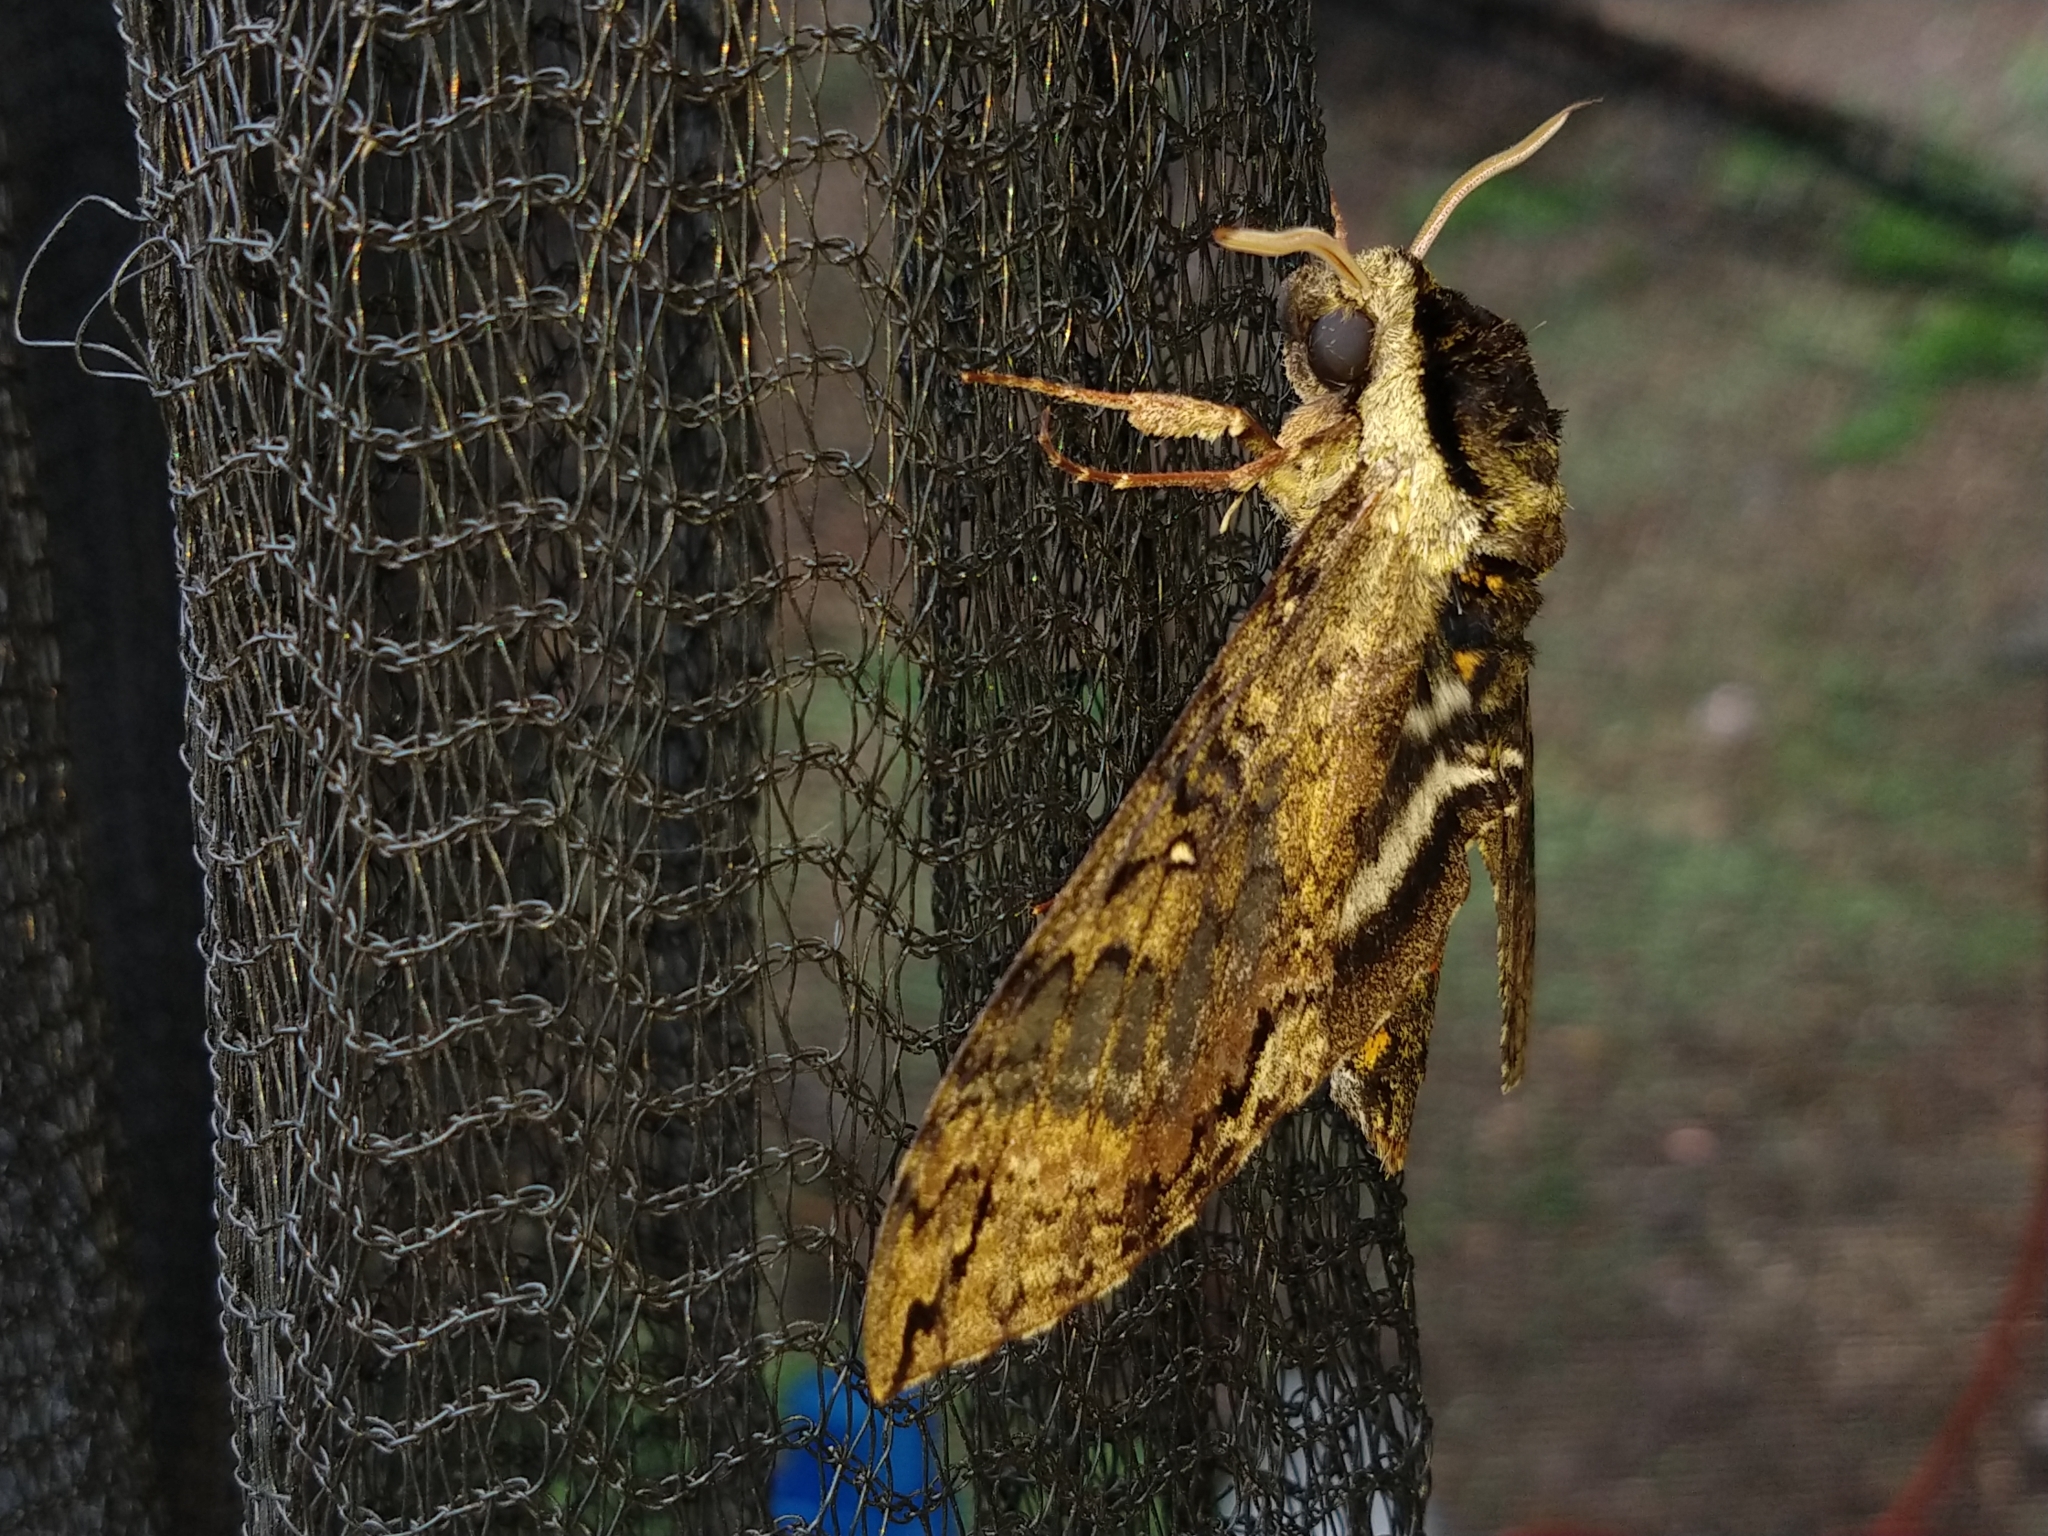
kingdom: Animalia
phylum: Arthropoda
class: Insecta
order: Lepidoptera
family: Sphingidae
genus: Manduca
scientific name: Manduca brasiliensis
